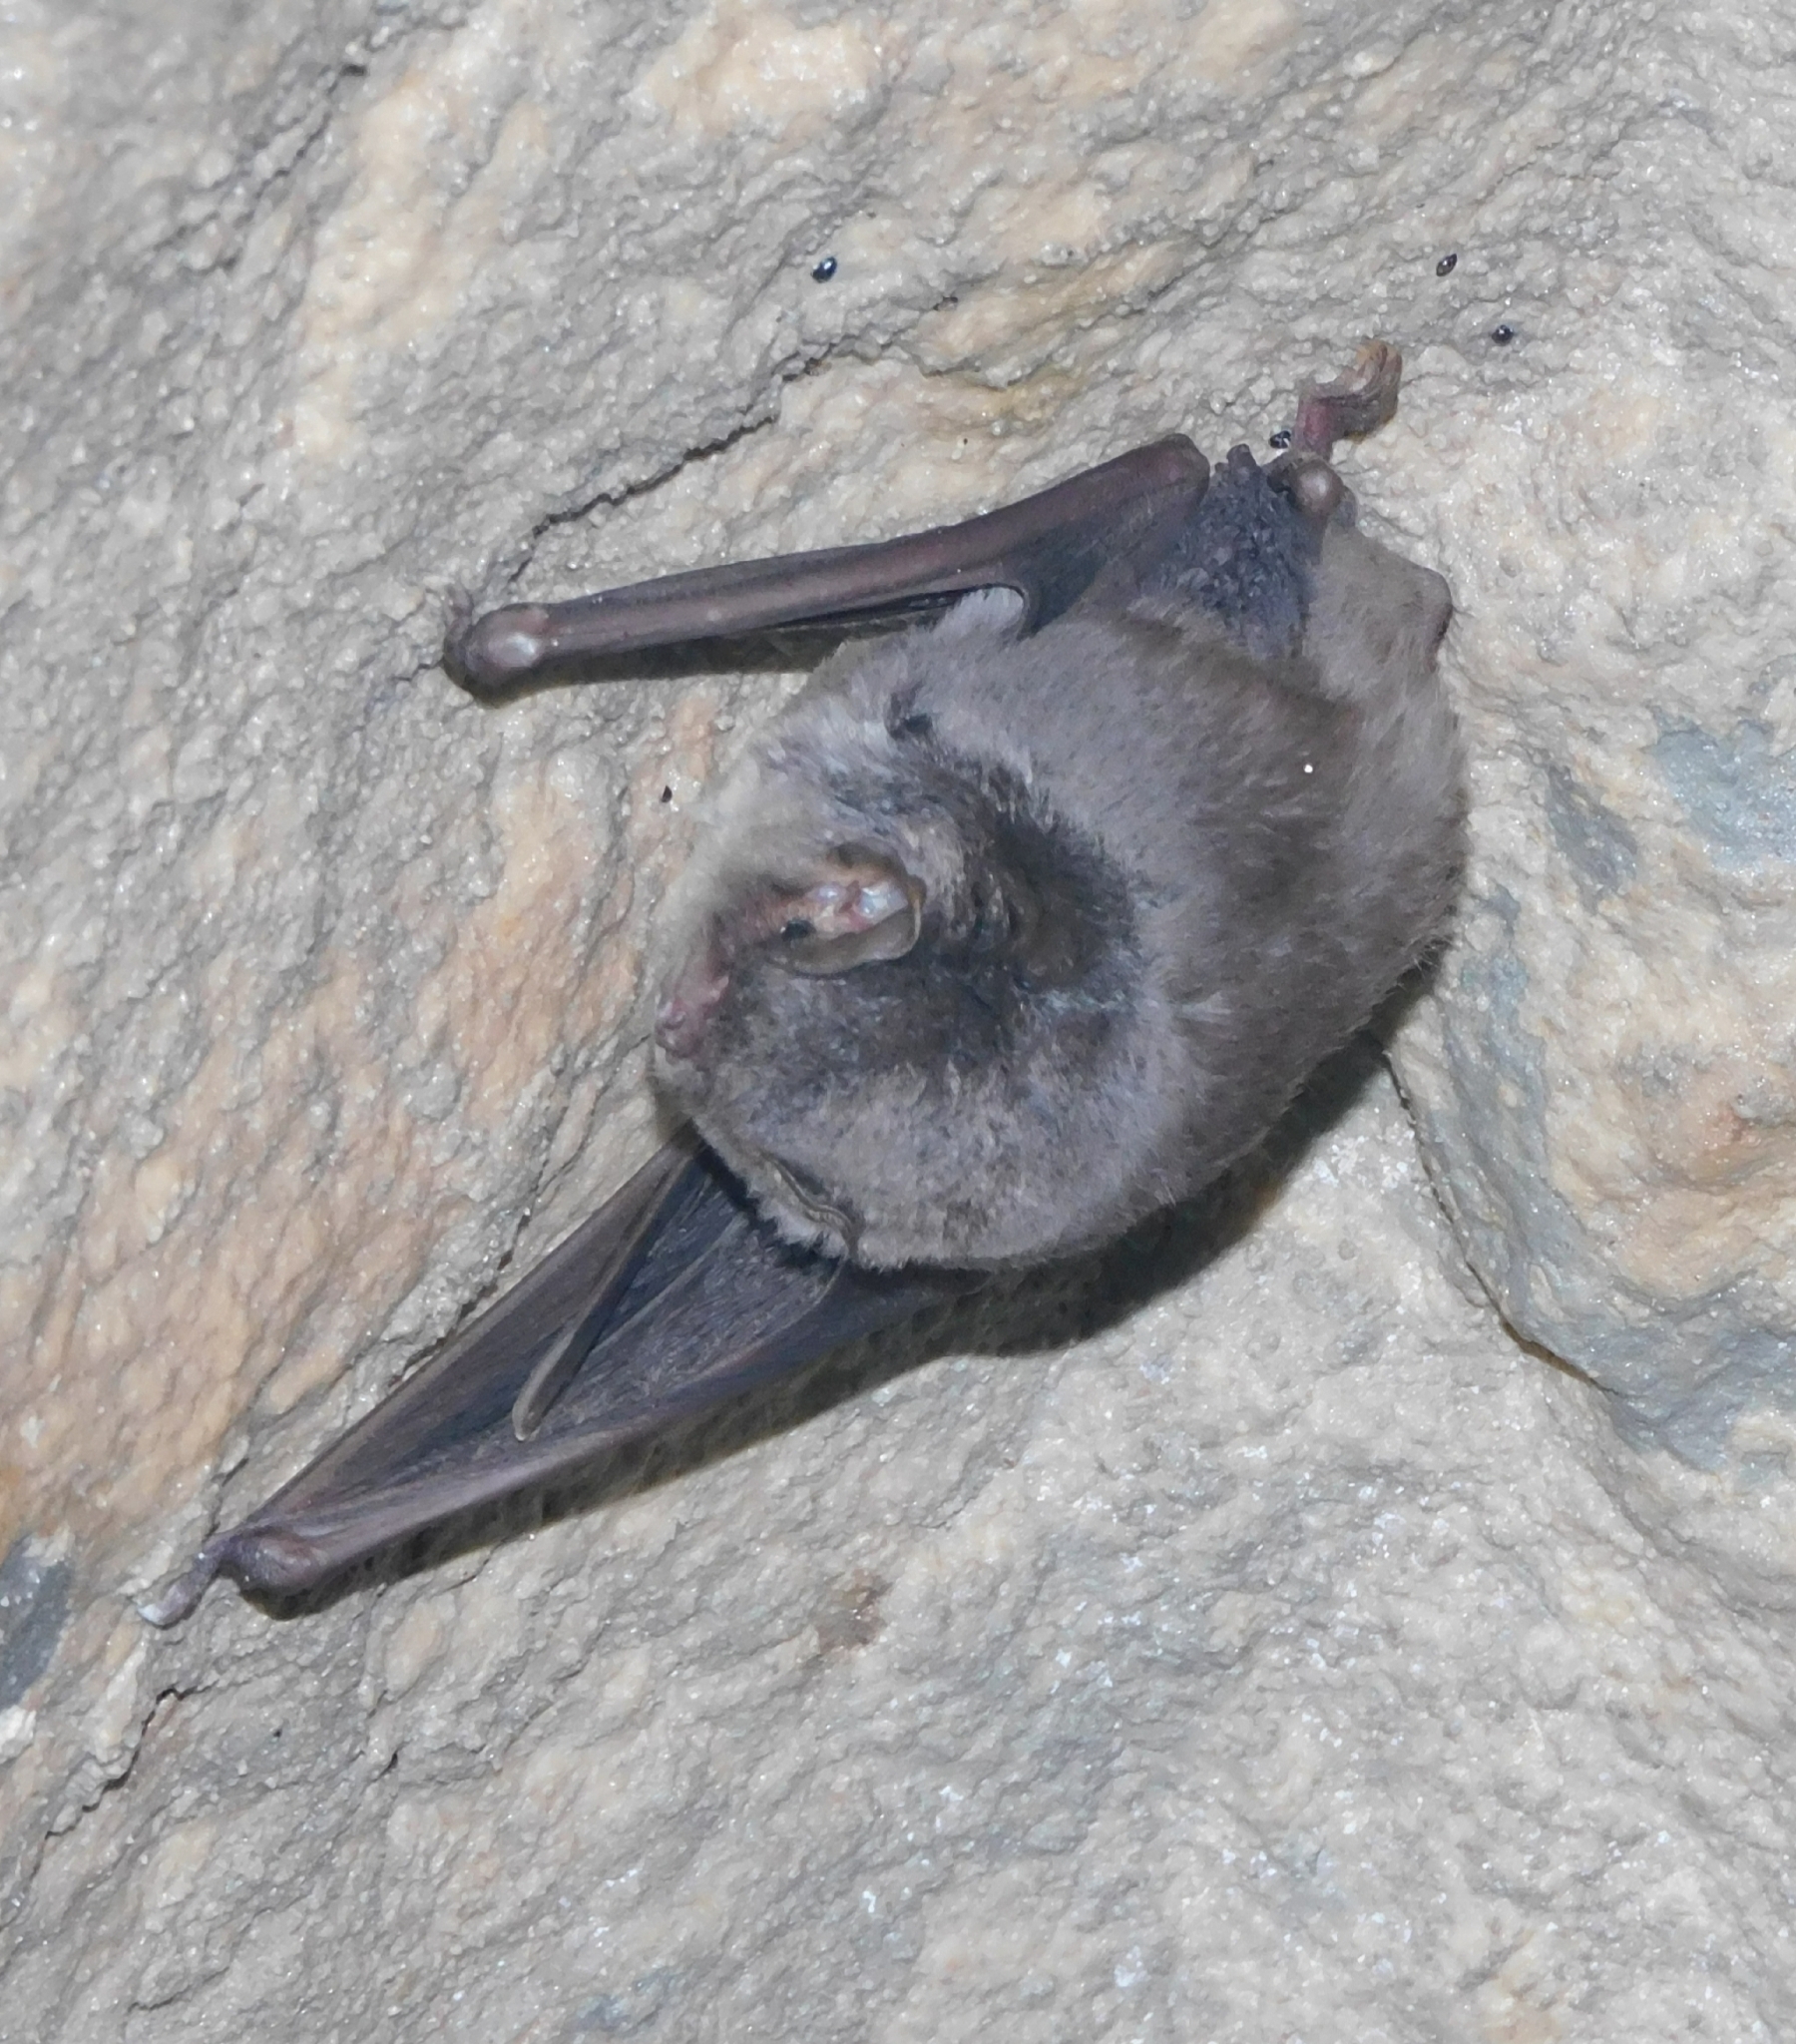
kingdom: Animalia
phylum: Chordata
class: Mammalia
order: Chiroptera
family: Miniopteridae
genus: Miniopterus
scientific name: Miniopterus schreibersii
